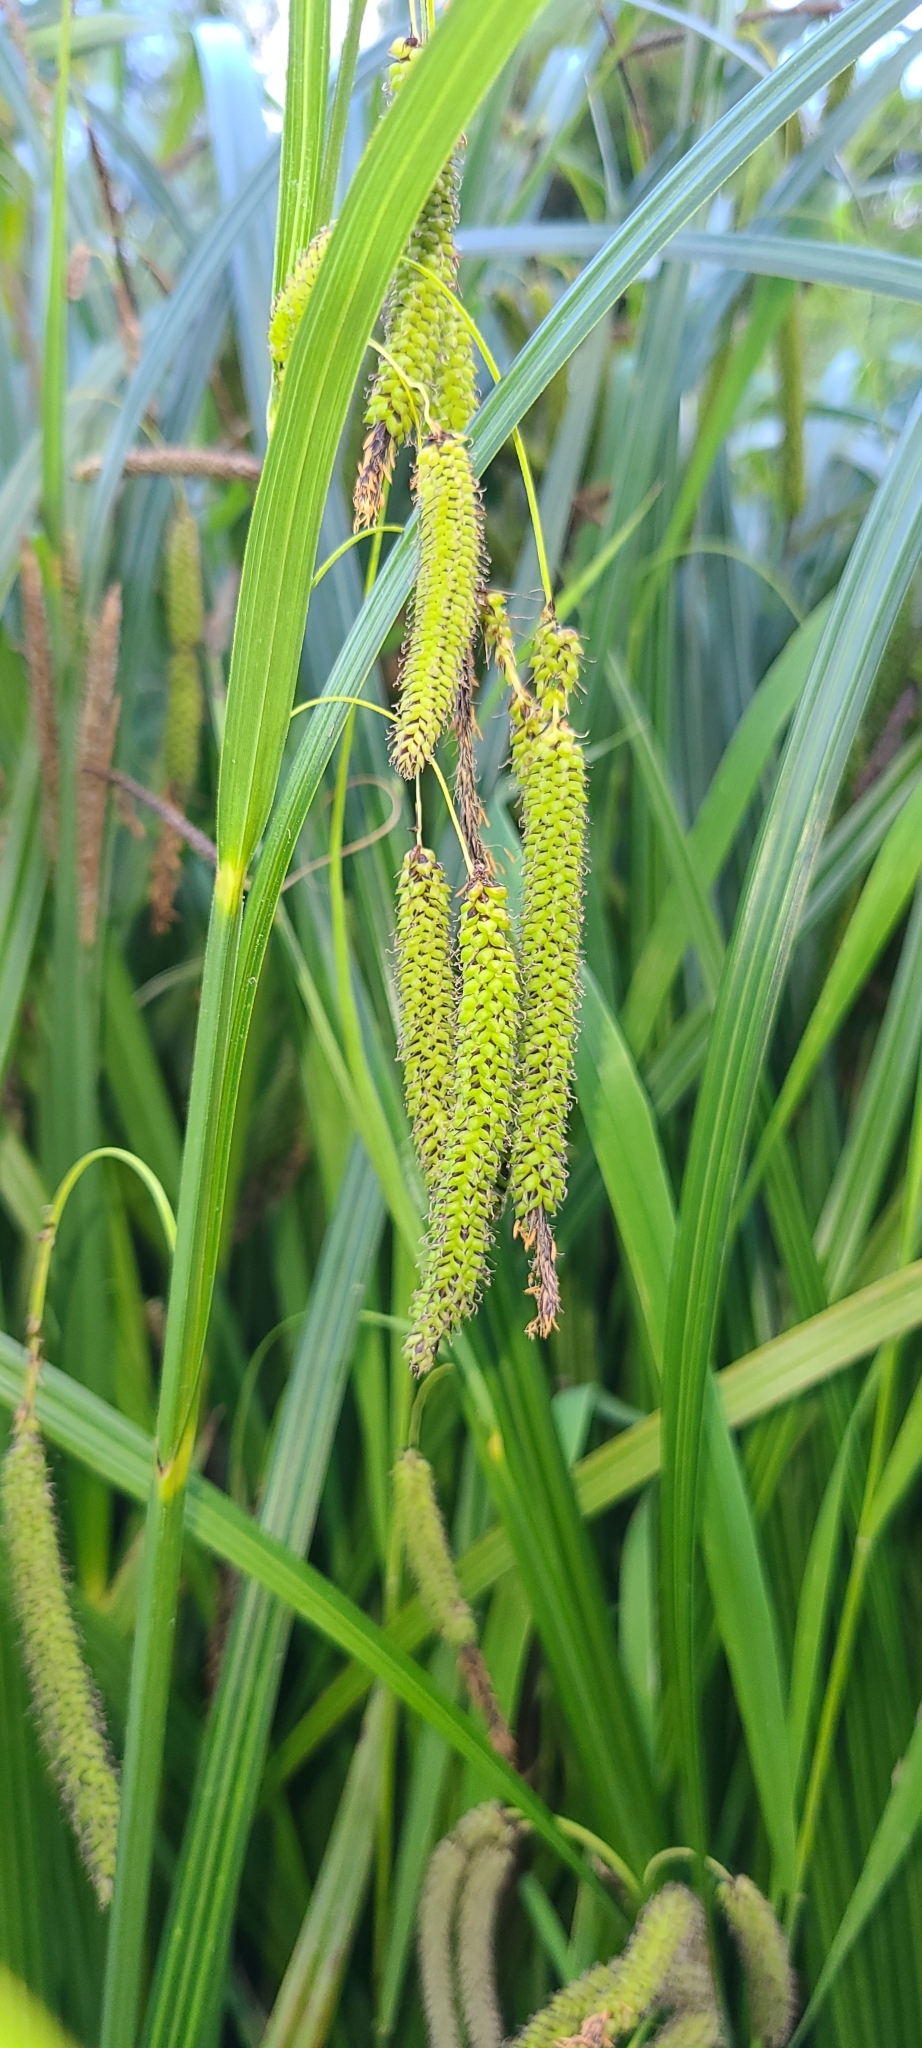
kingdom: Plantae
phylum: Tracheophyta
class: Liliopsida
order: Poales
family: Cyperaceae
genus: Carex
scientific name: Carex geminata
